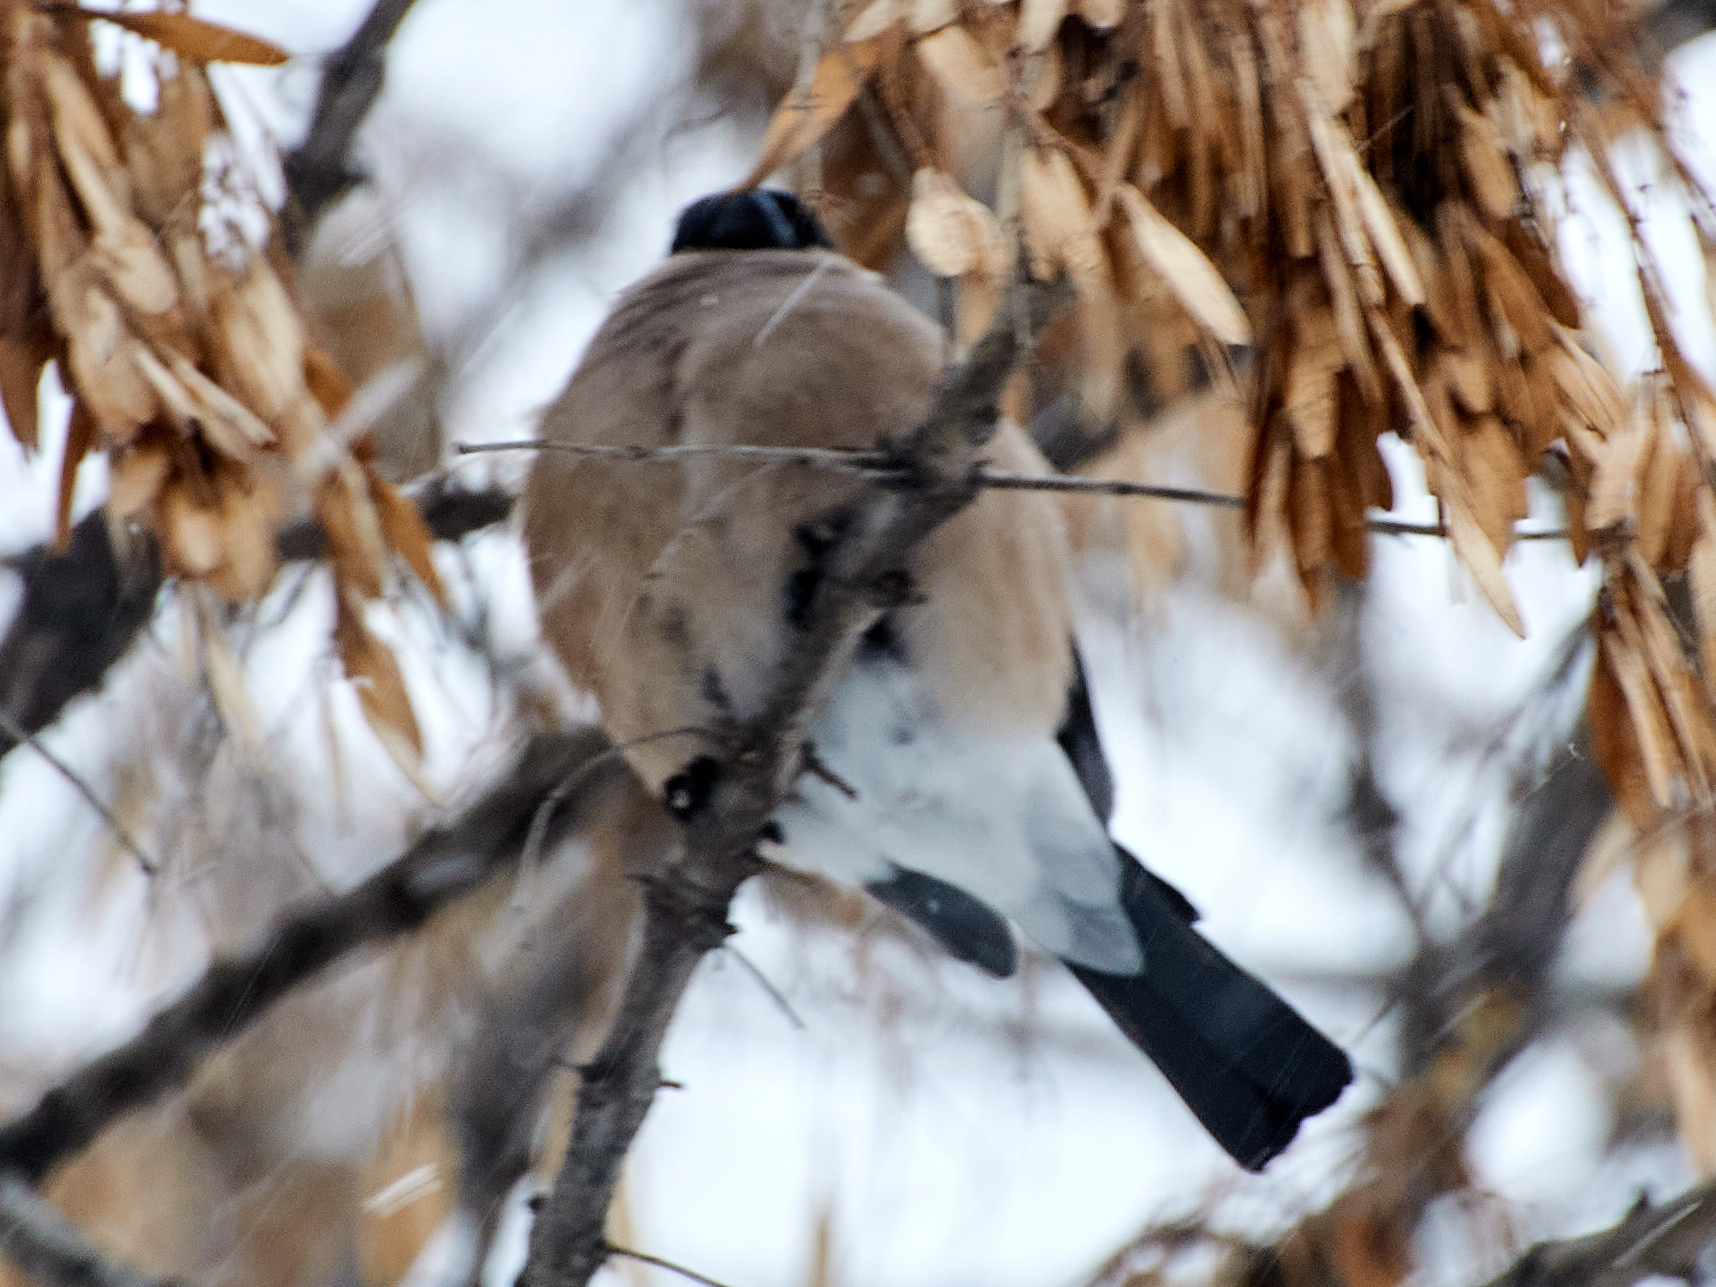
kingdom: Animalia
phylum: Chordata
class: Aves
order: Passeriformes
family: Fringillidae
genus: Pyrrhula
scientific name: Pyrrhula pyrrhula
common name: Eurasian bullfinch
